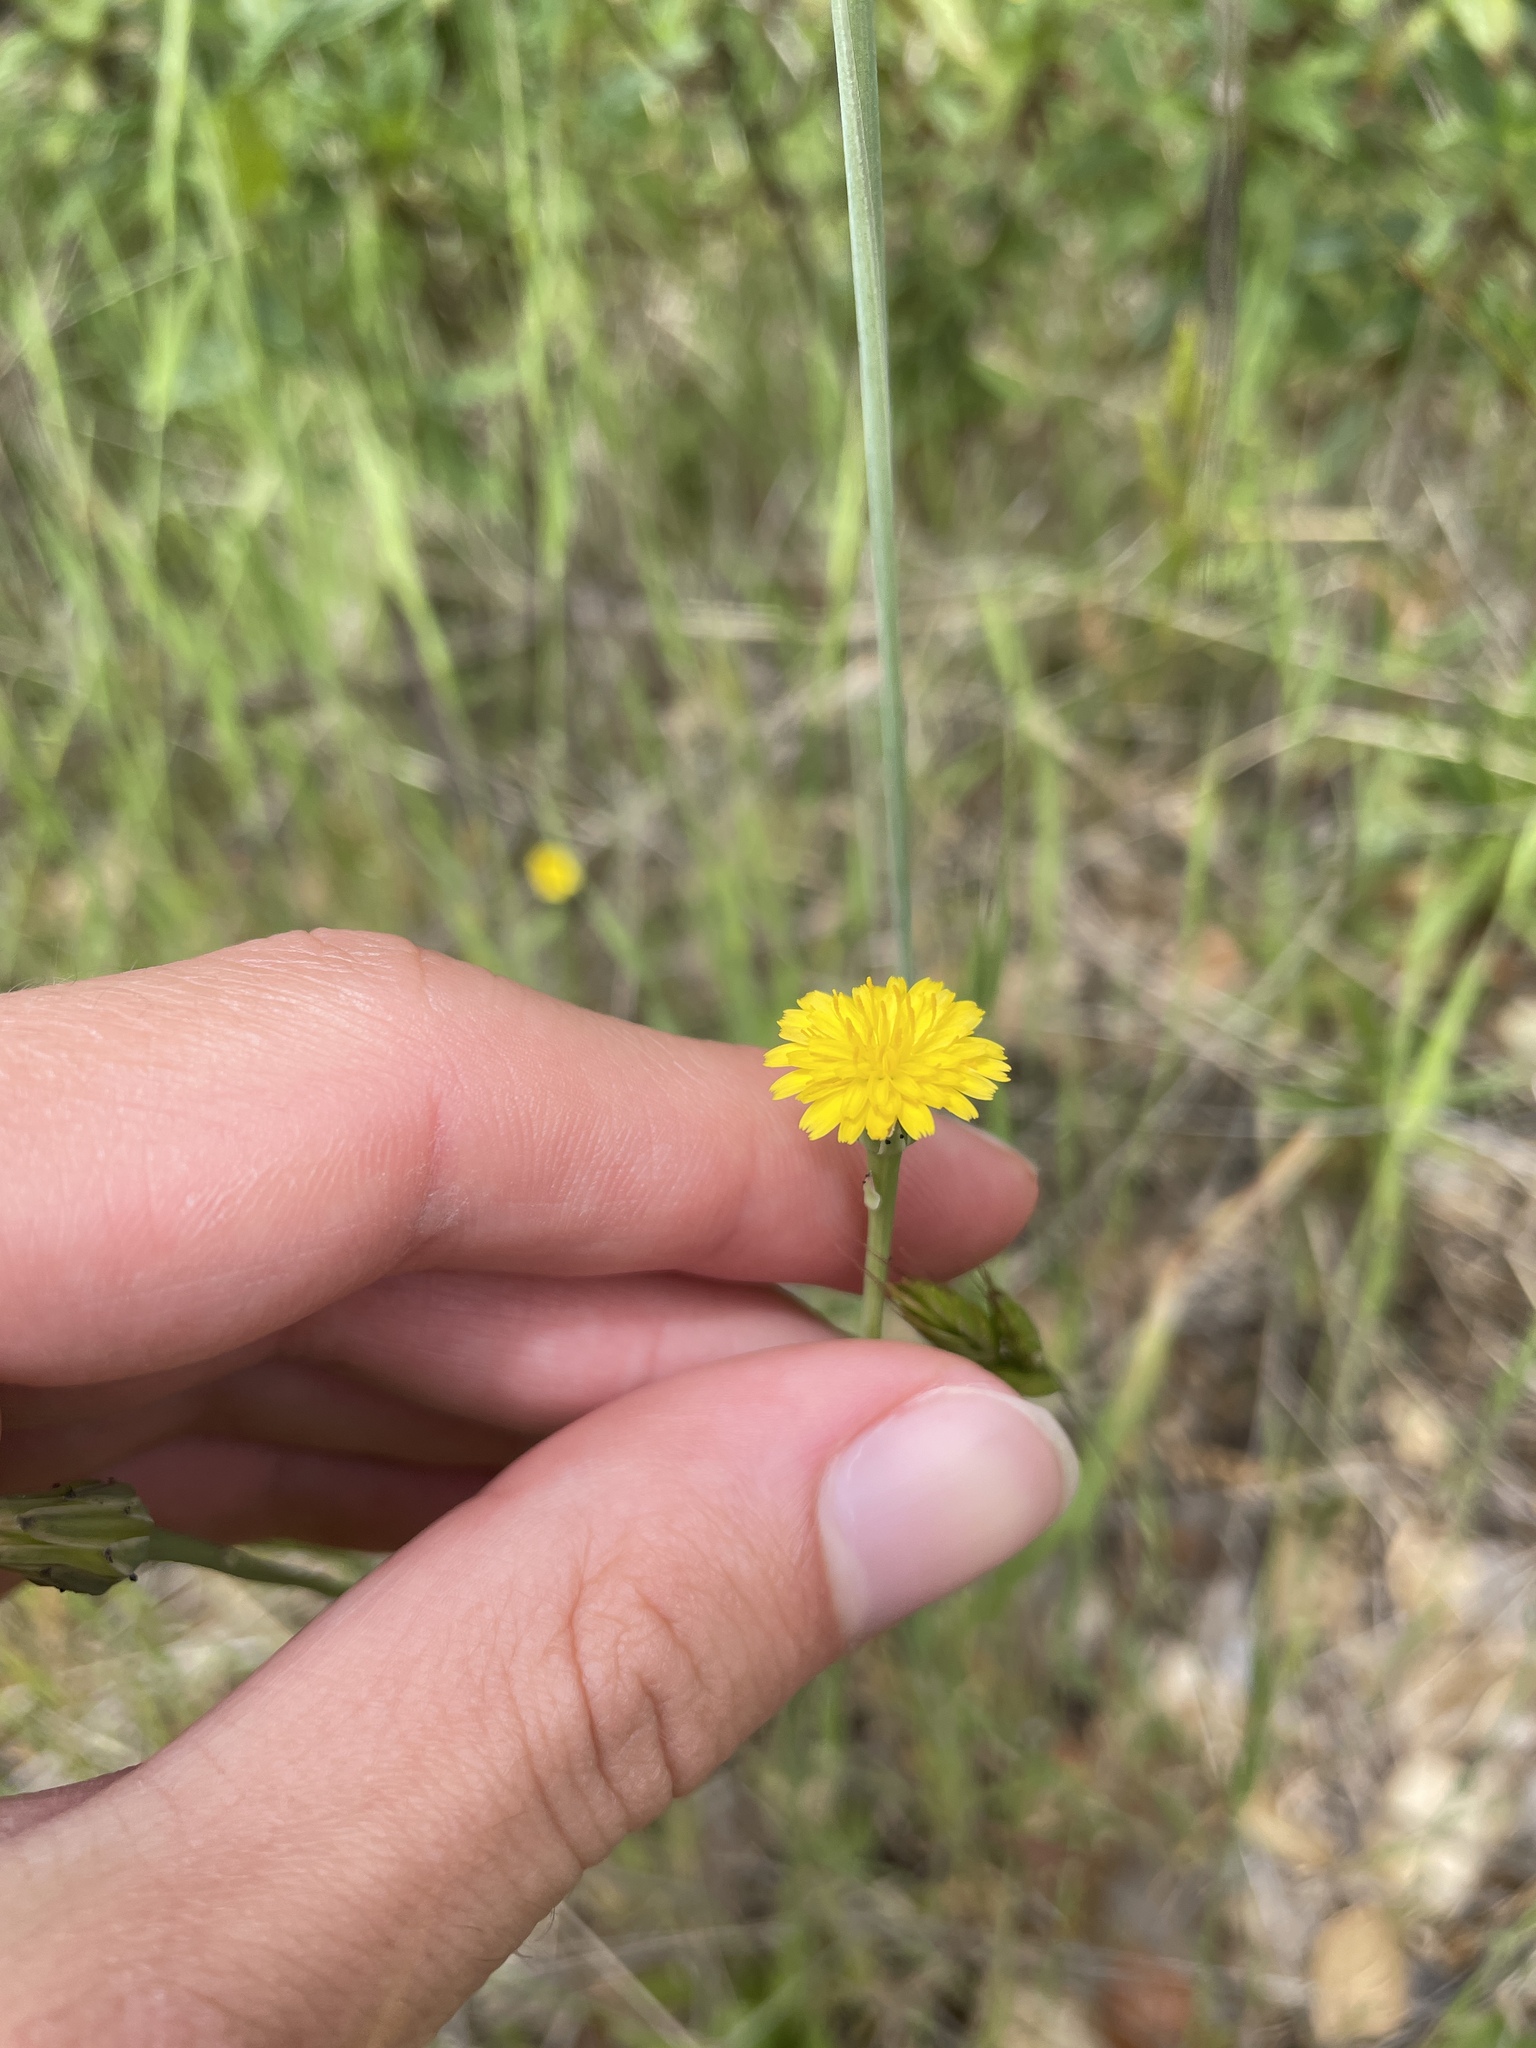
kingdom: Plantae
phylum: Tracheophyta
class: Magnoliopsida
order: Asterales
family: Asteraceae
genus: Hypochaeris
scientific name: Hypochaeris glabra
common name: Smooth catsear
